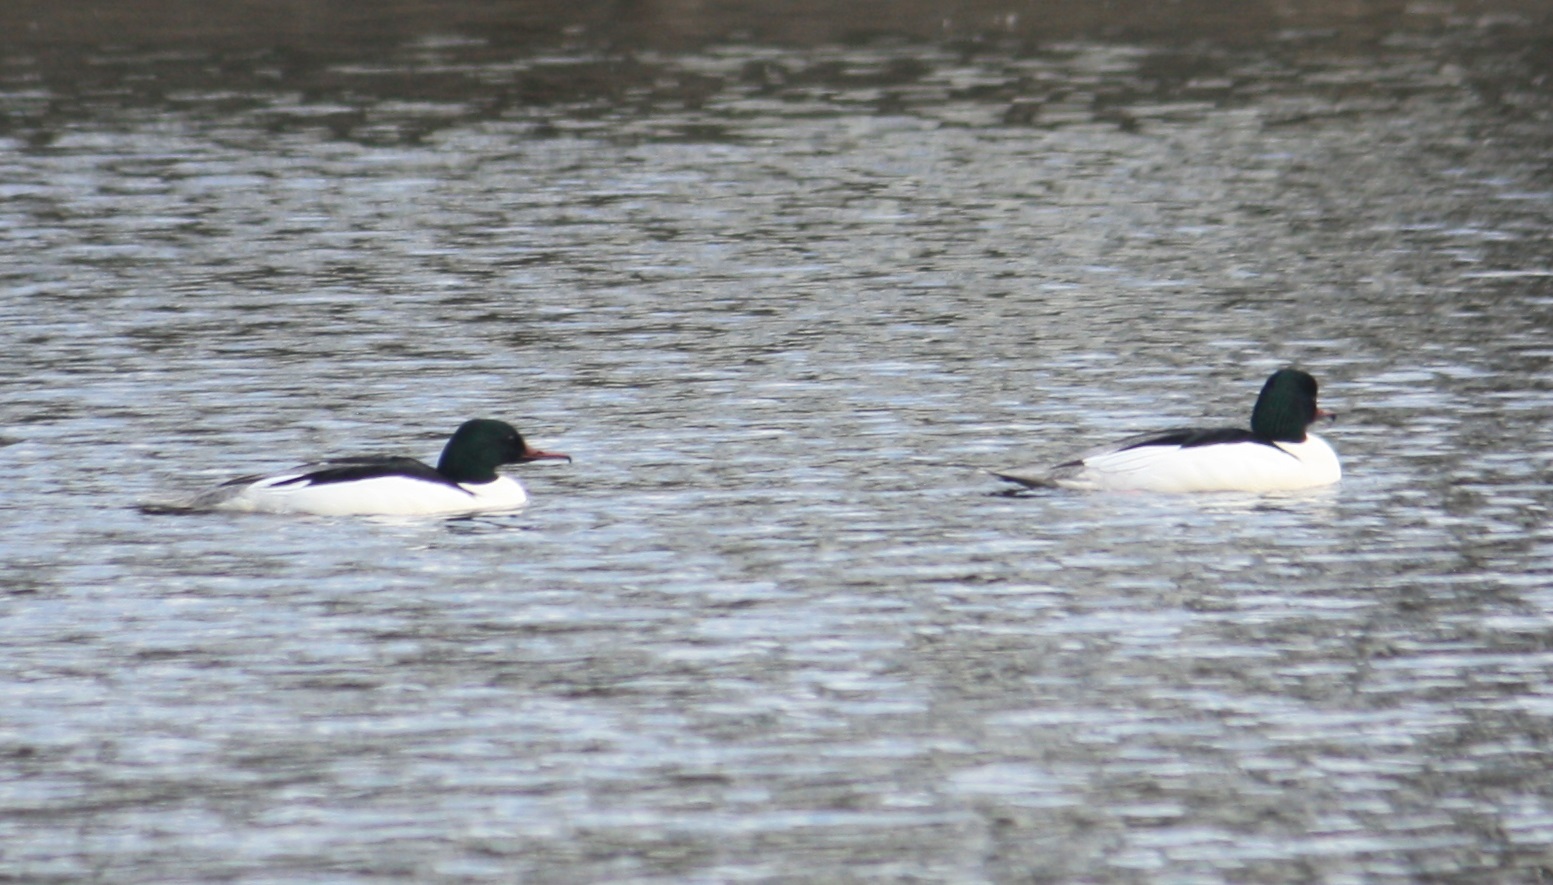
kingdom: Animalia
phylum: Chordata
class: Aves
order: Anseriformes
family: Anatidae
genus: Mergus
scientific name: Mergus merganser
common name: Common merganser
